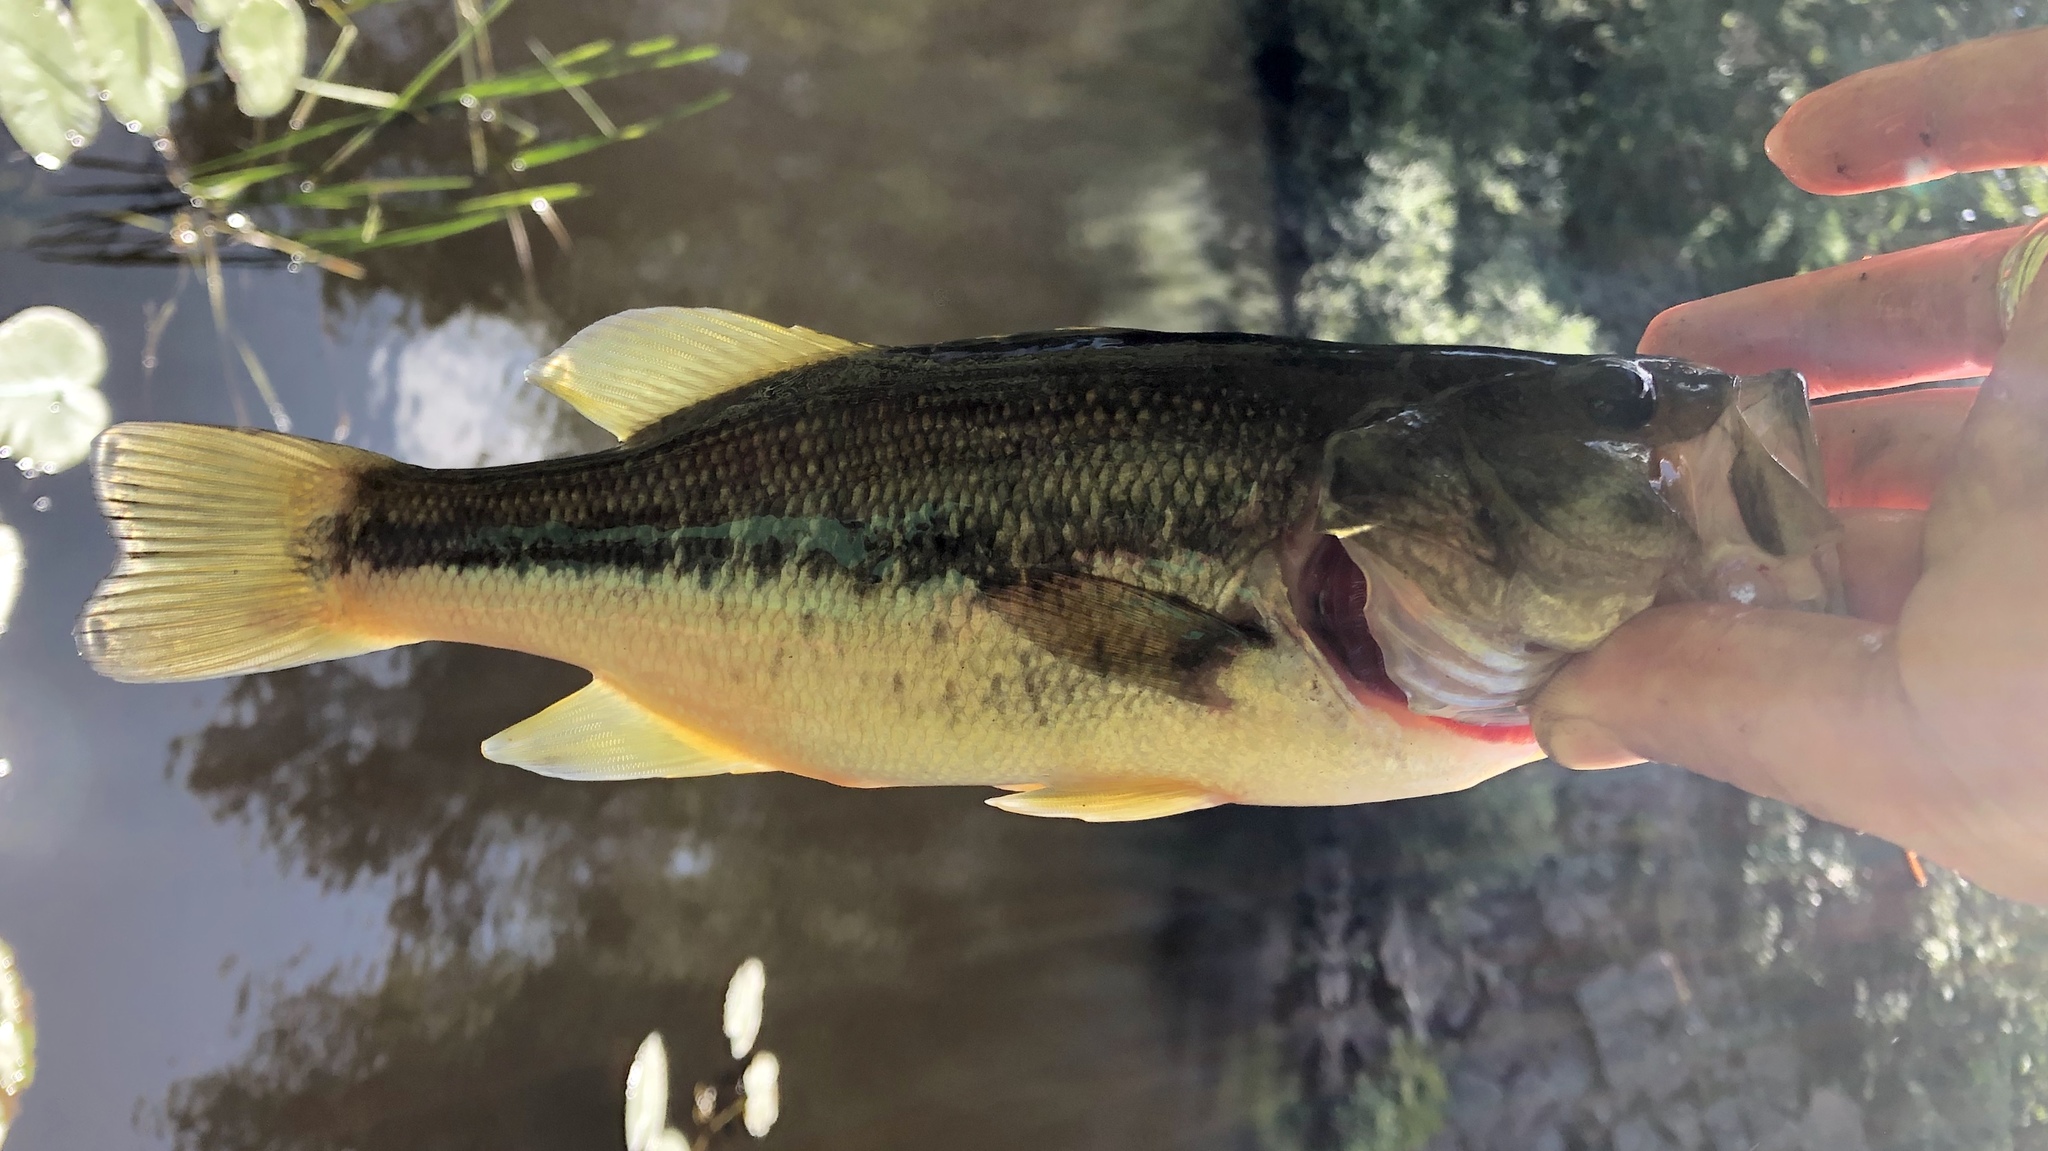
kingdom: Animalia
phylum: Chordata
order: Perciformes
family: Centrarchidae
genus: Micropterus
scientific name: Micropterus
